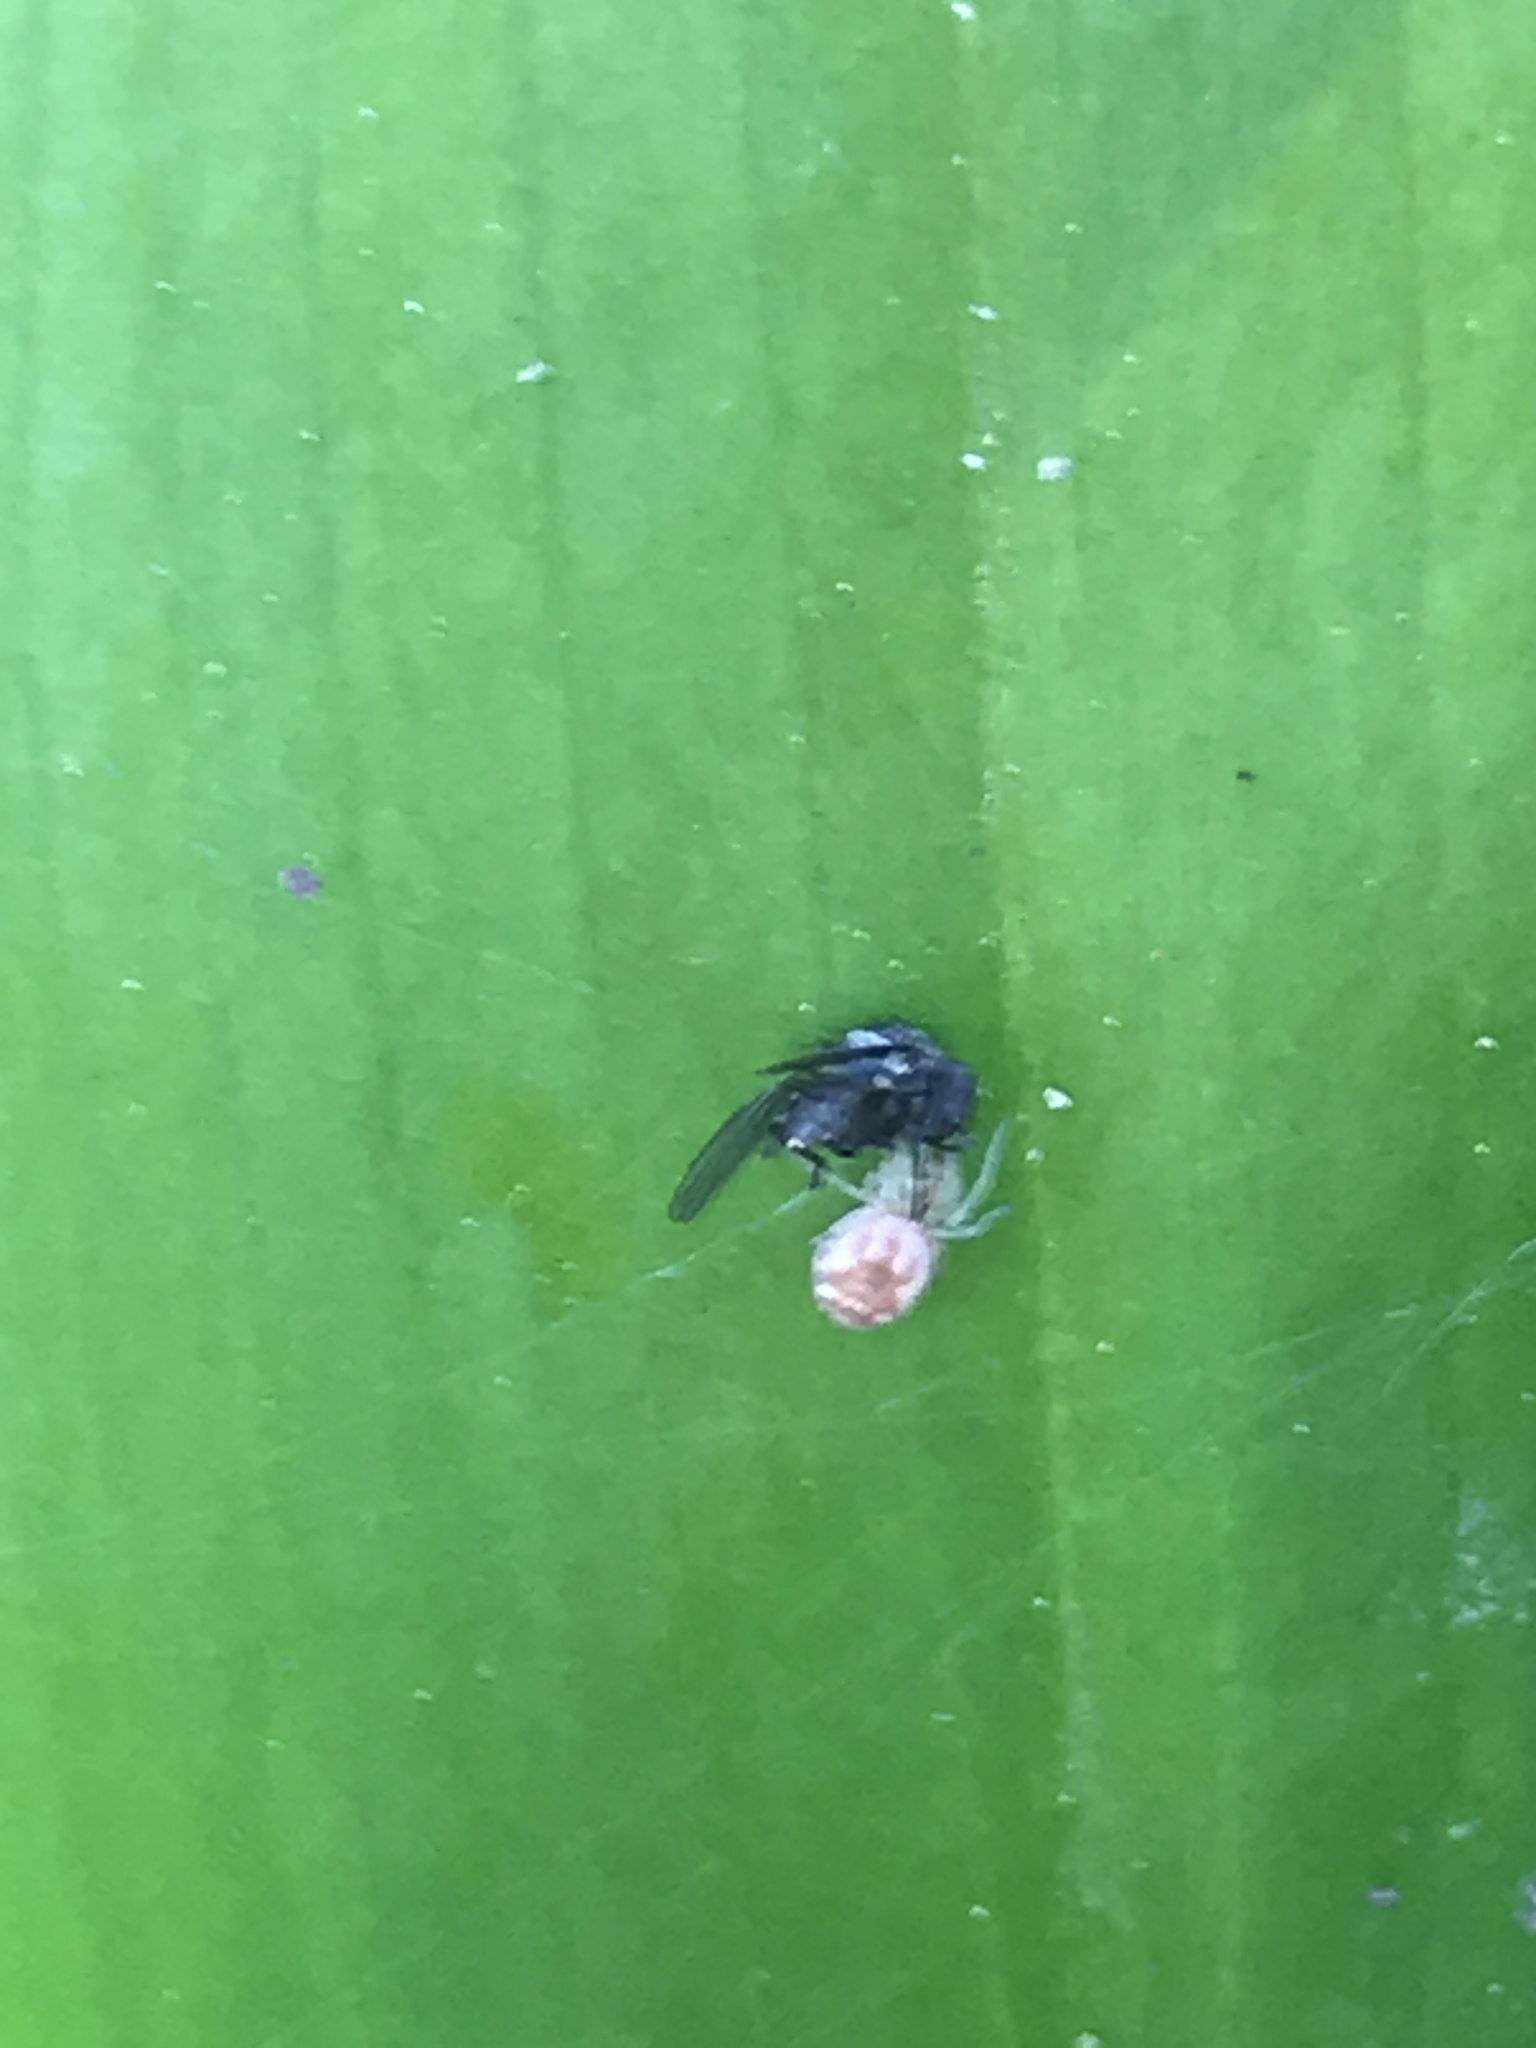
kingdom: Animalia
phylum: Arthropoda
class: Arachnida
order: Araneae
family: Dictynidae
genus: Nigma
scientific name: Nigma flavescens
